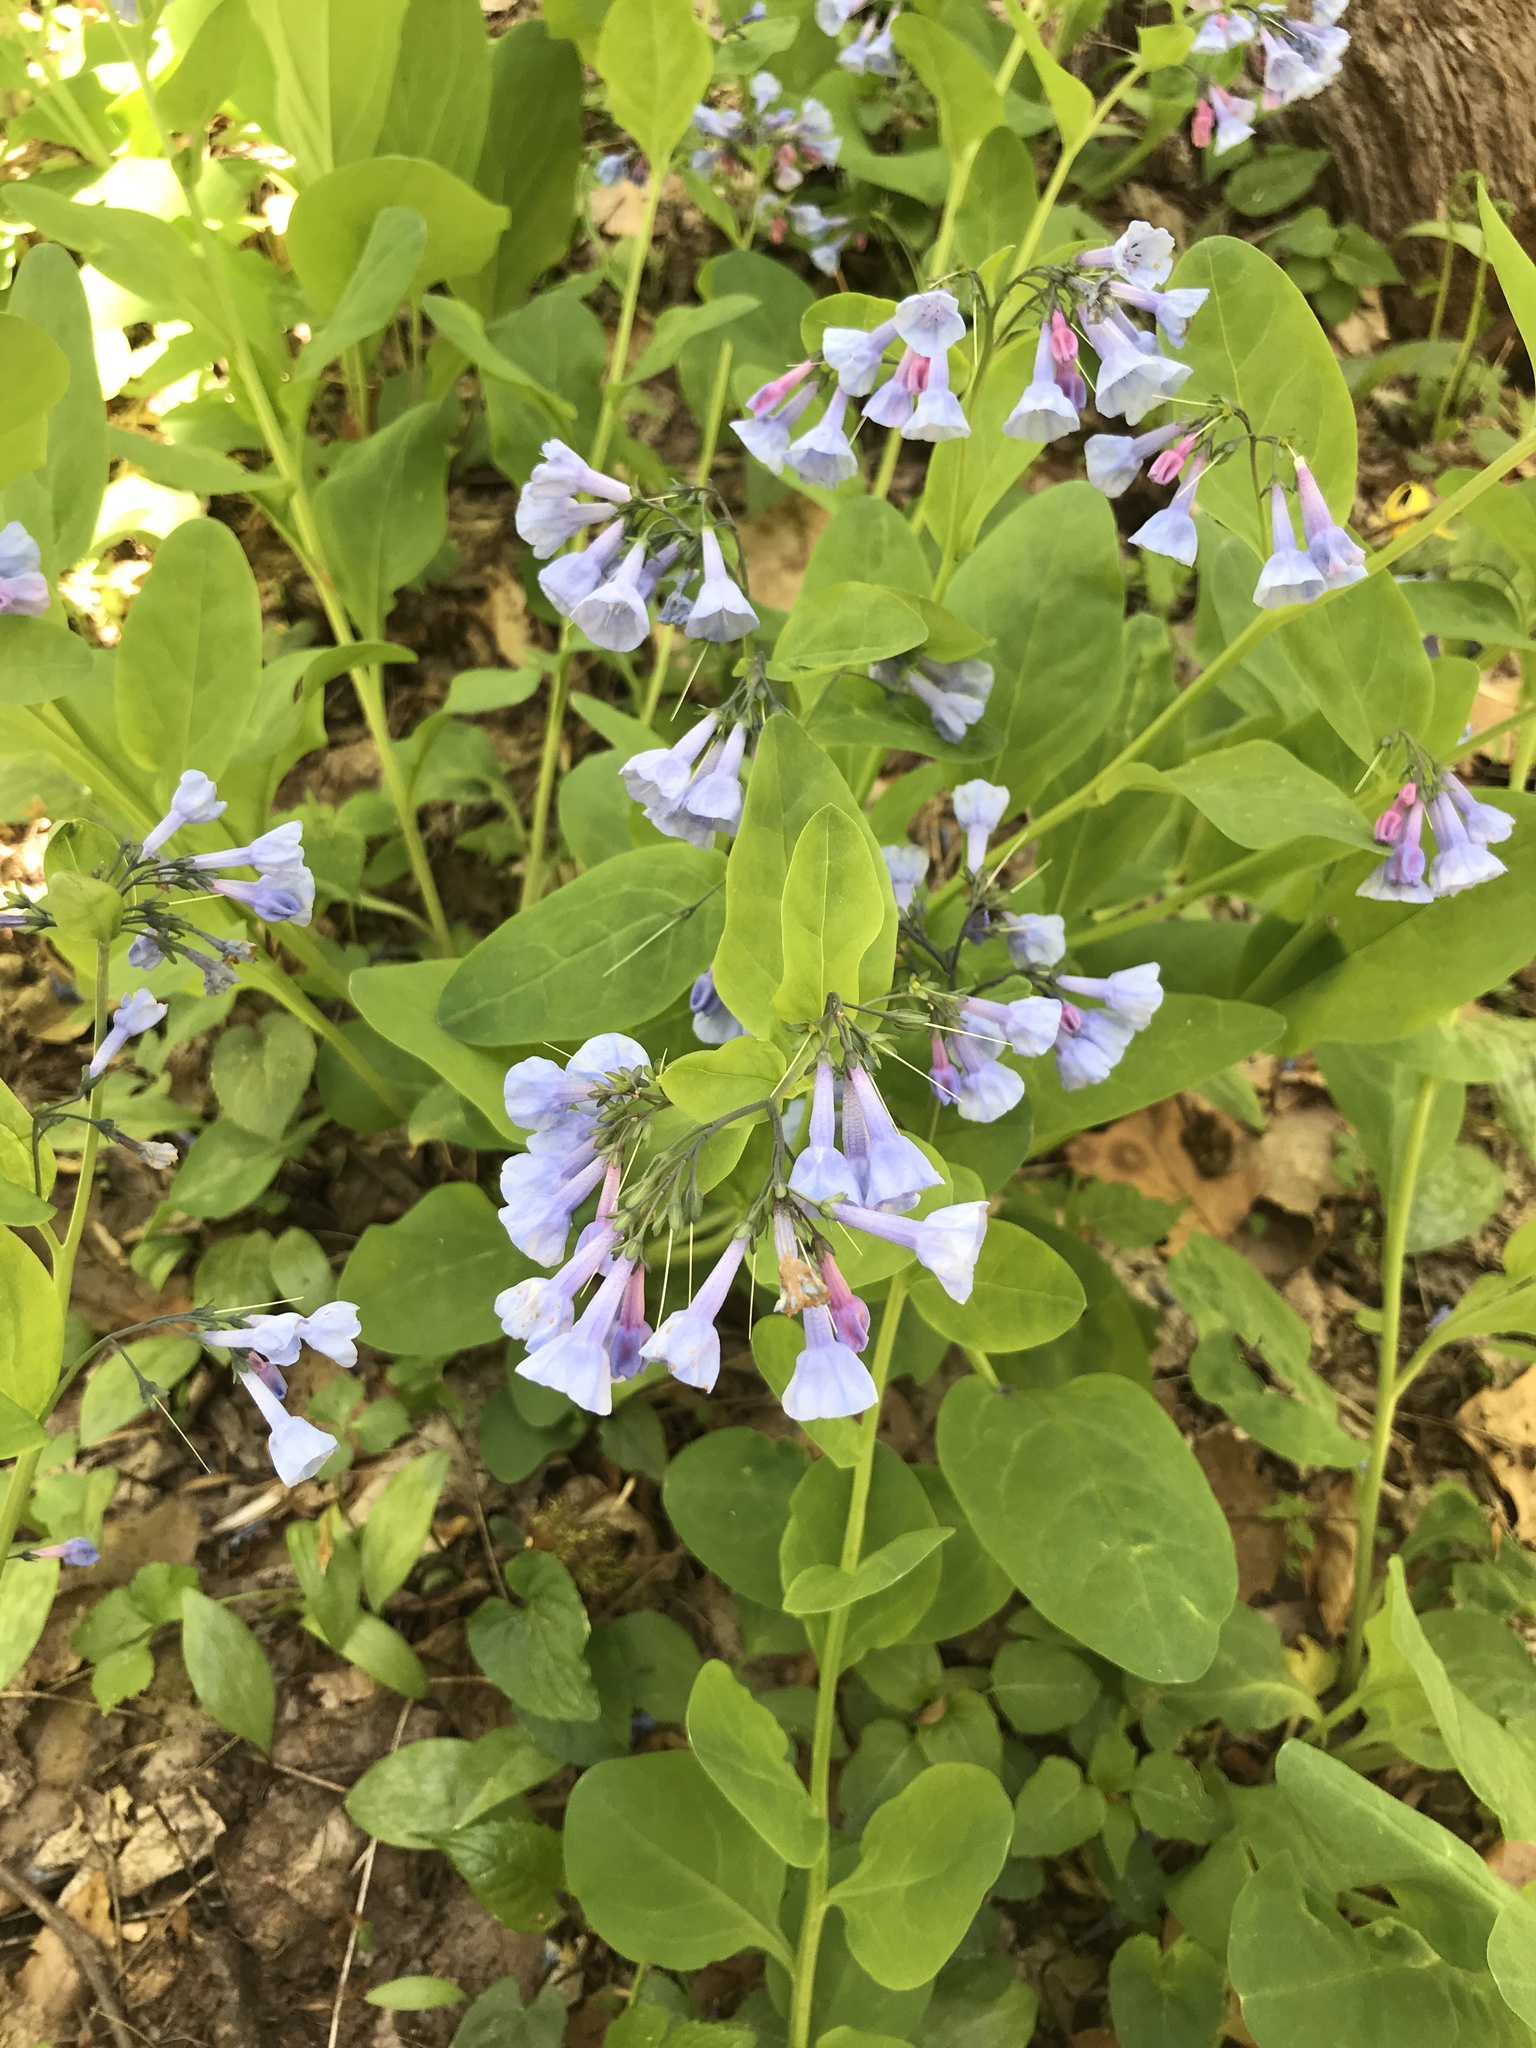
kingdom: Plantae
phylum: Tracheophyta
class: Magnoliopsida
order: Boraginales
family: Boraginaceae
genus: Mertensia
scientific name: Mertensia virginica
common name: Virginia bluebells
